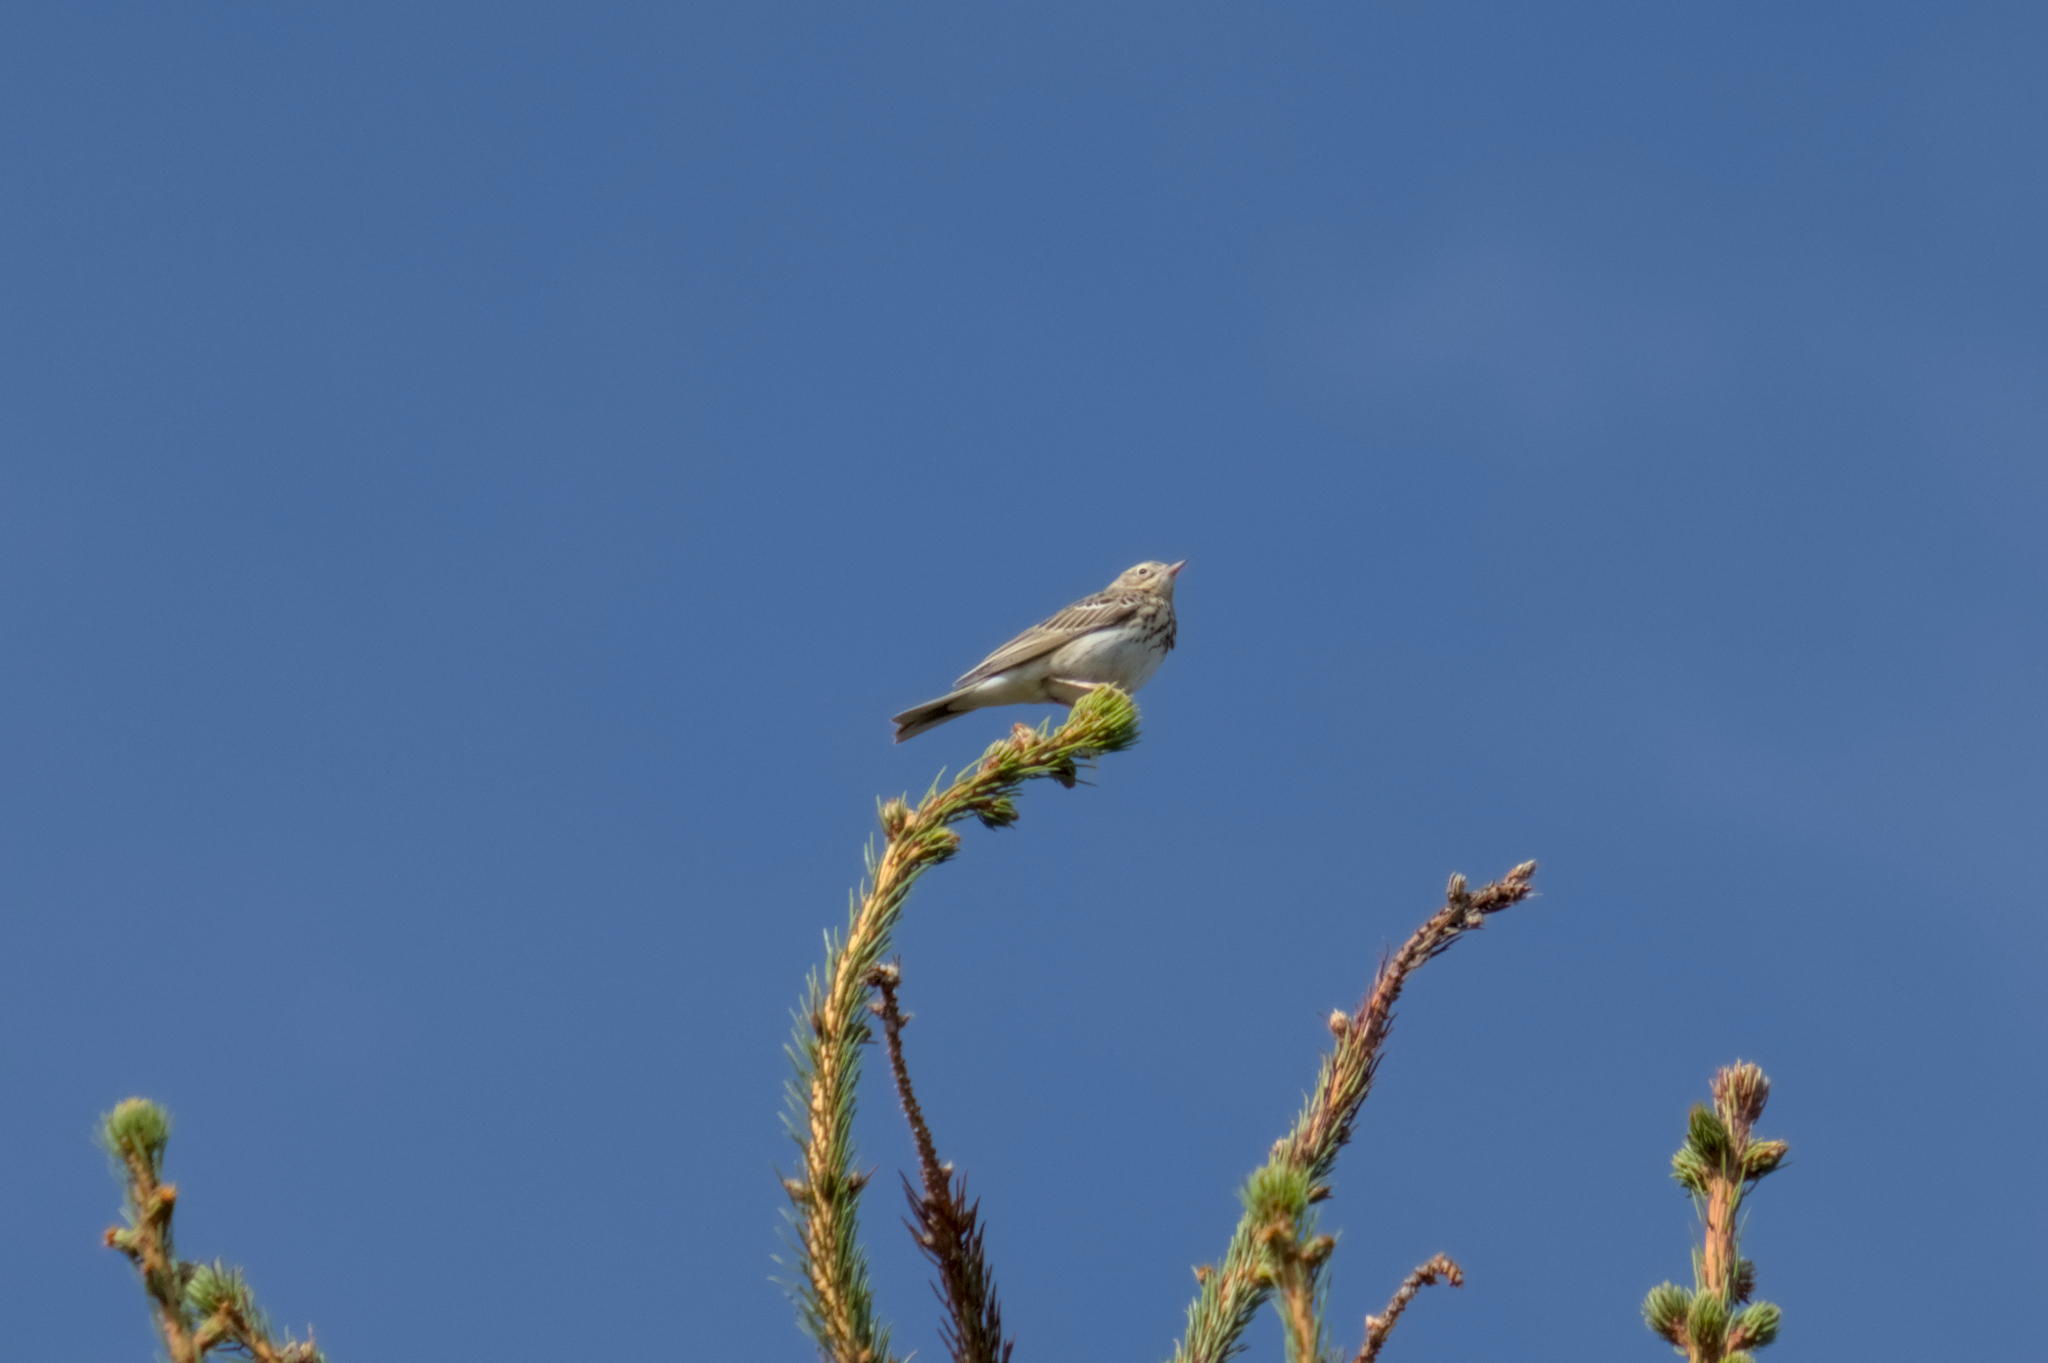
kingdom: Animalia
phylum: Chordata
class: Aves
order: Passeriformes
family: Motacillidae
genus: Anthus
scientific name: Anthus trivialis
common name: Tree pipit
